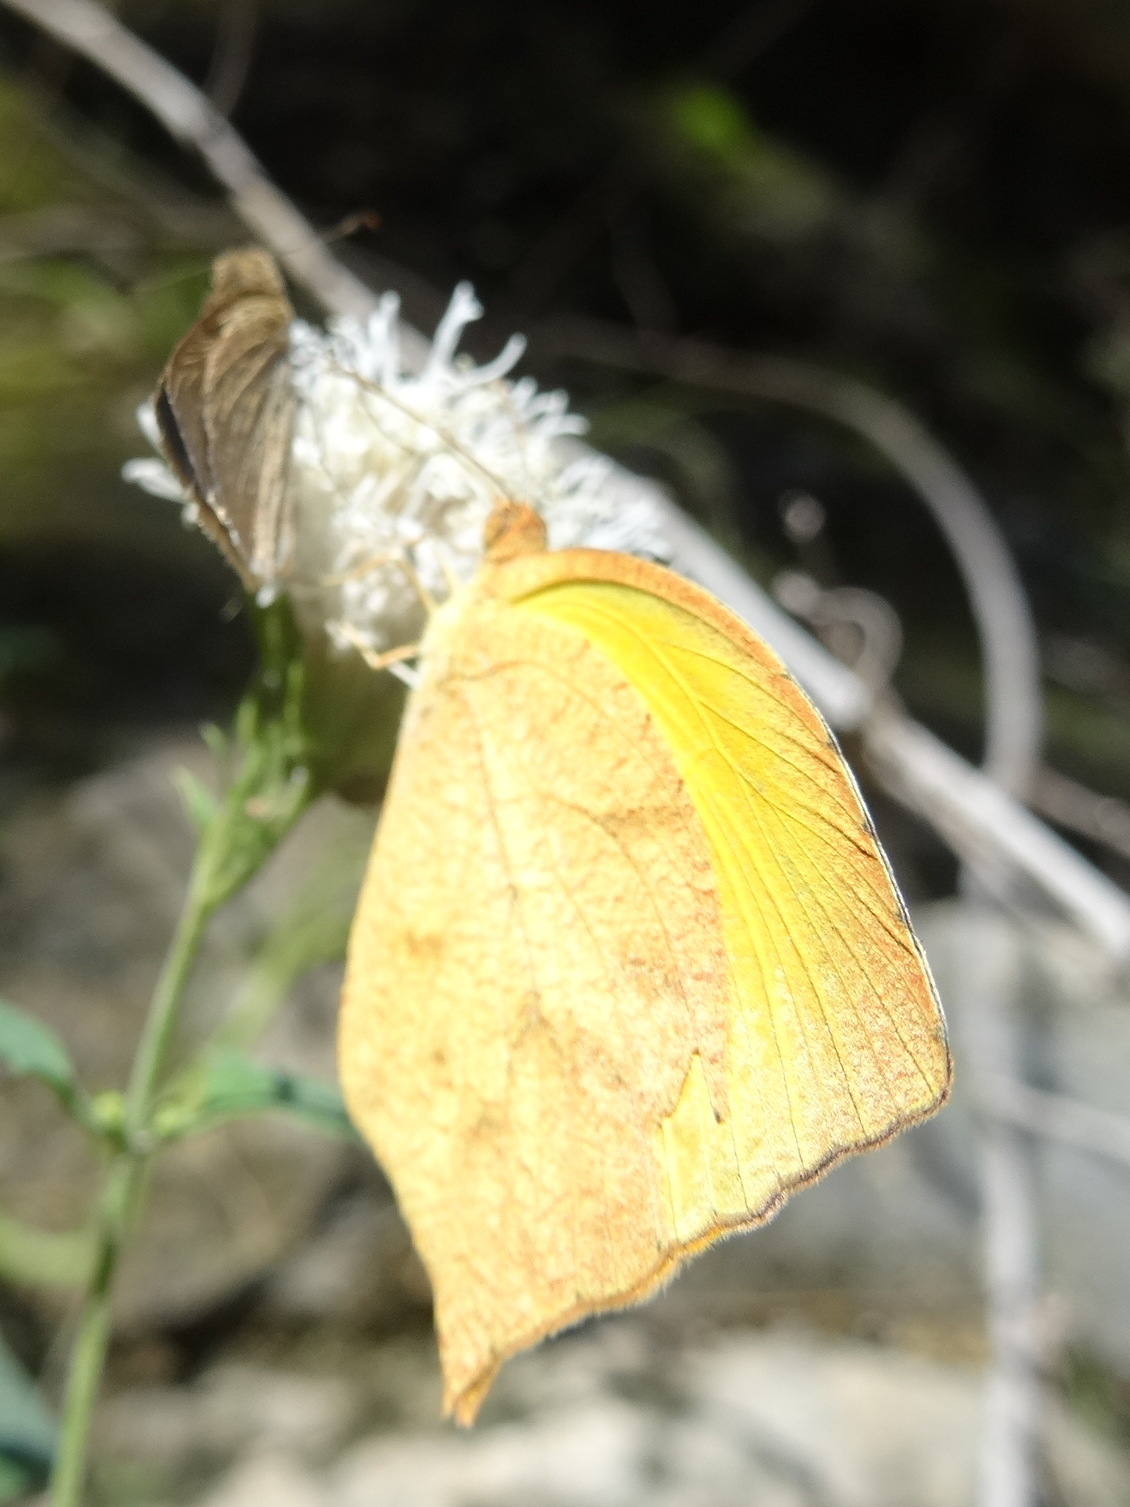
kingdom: Animalia
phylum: Arthropoda
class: Insecta
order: Lepidoptera
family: Pieridae
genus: Pyrisitia
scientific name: Pyrisitia proterpia
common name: Tailed orange
